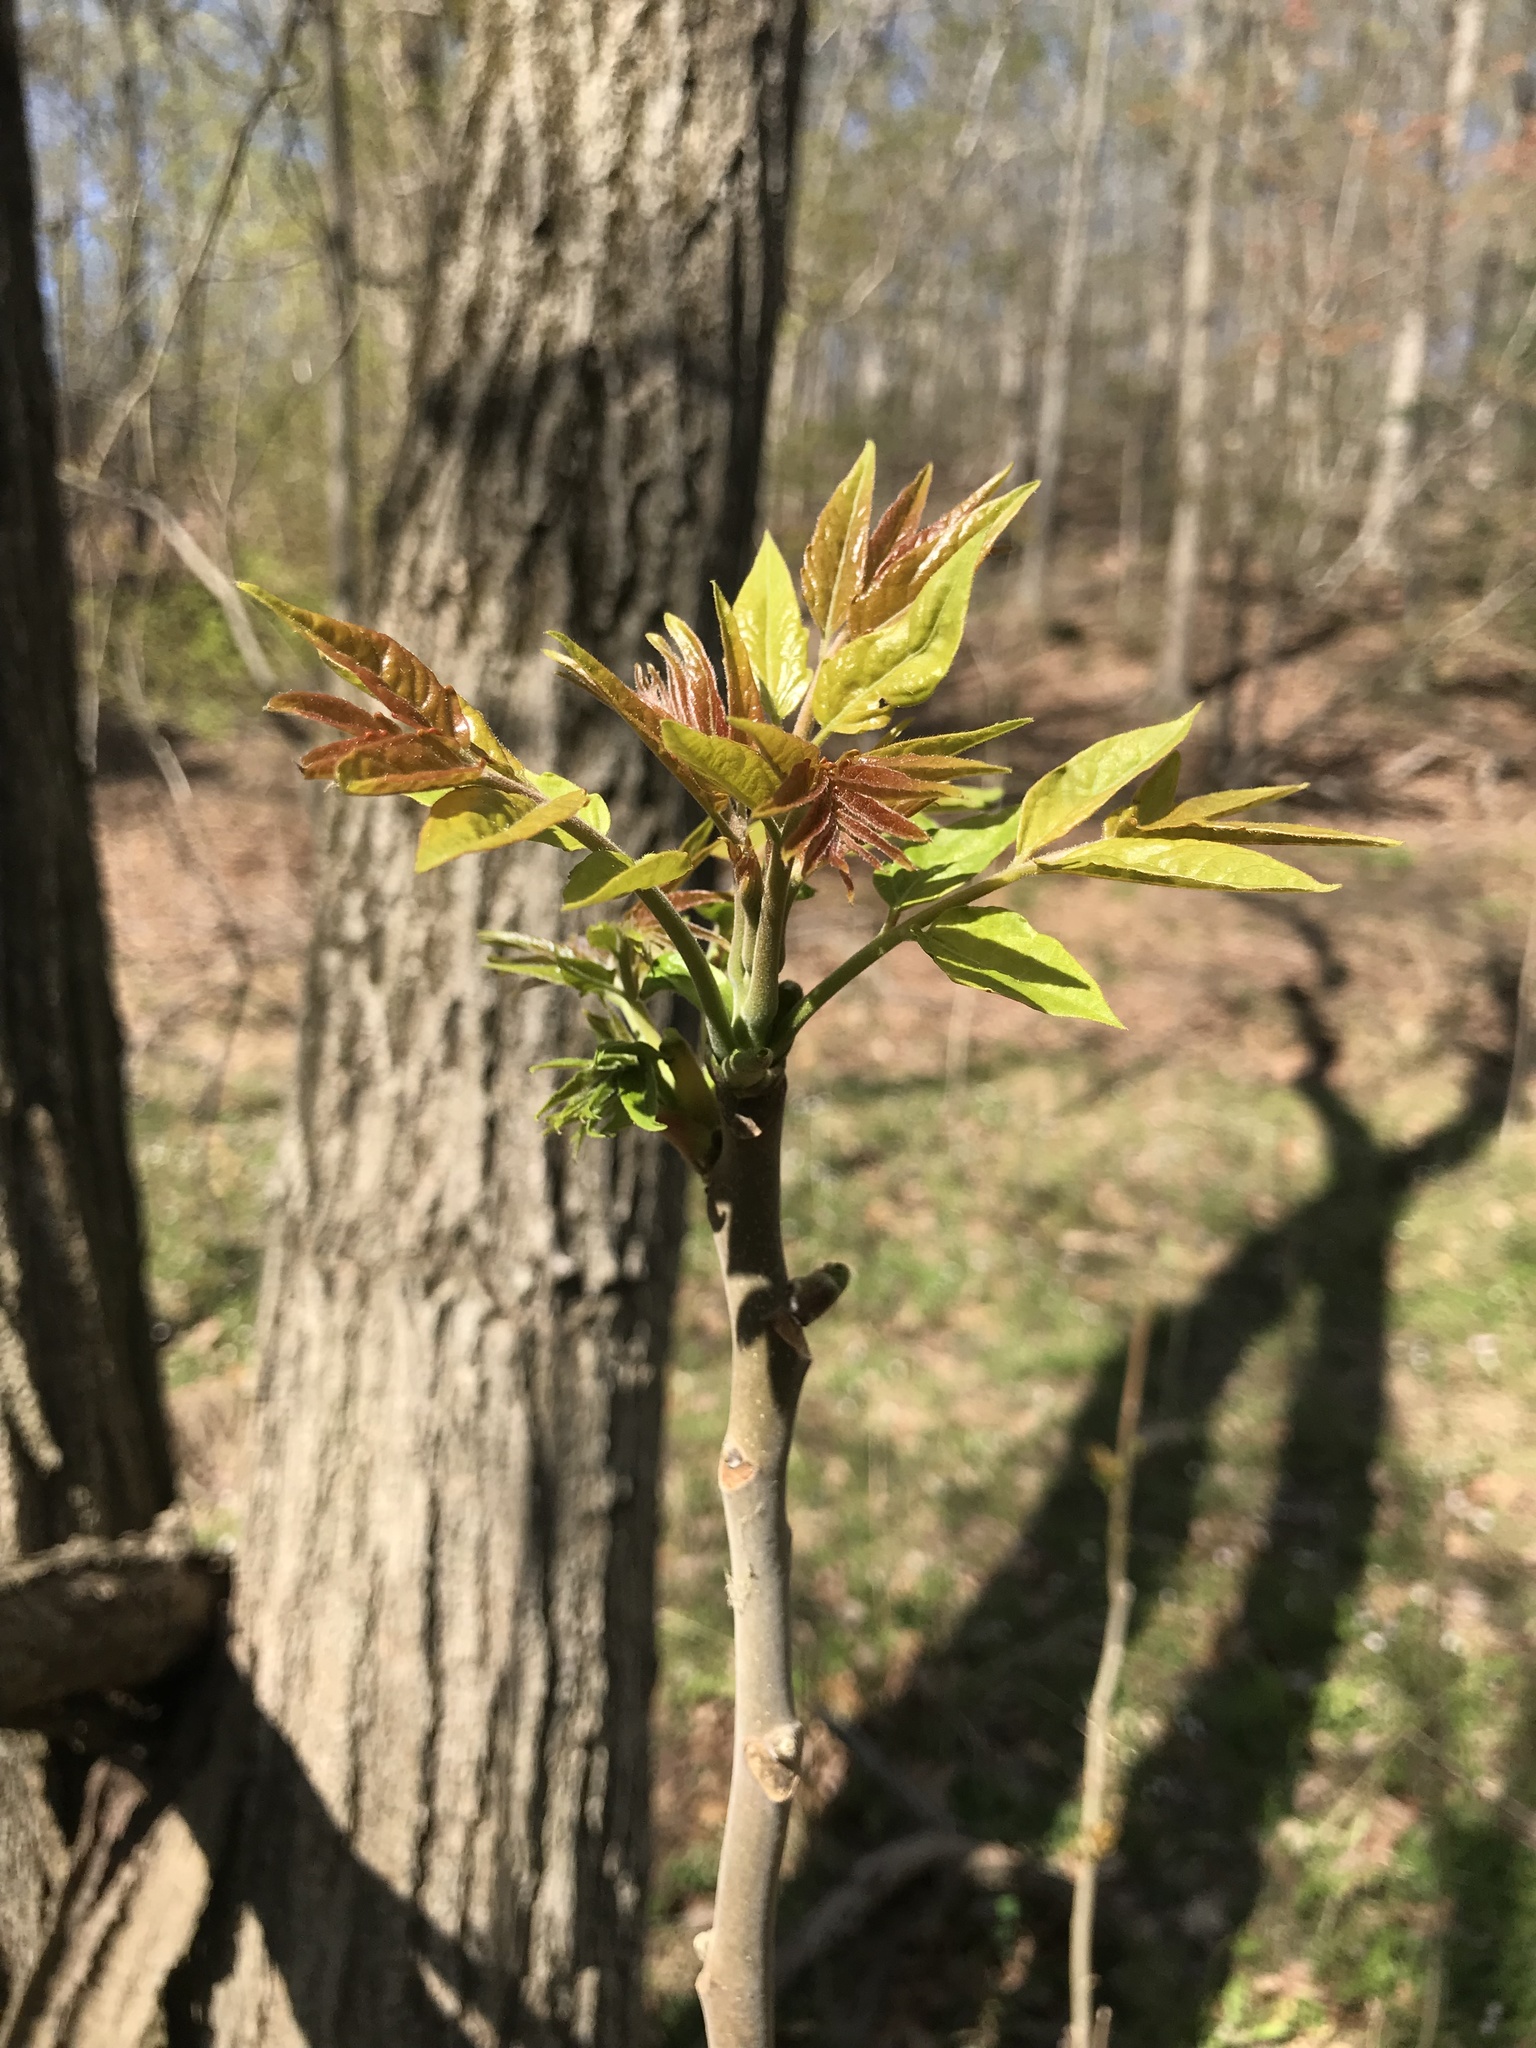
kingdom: Plantae
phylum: Tracheophyta
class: Magnoliopsida
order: Sapindales
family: Simaroubaceae
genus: Ailanthus
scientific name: Ailanthus altissima
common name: Tree-of-heaven
